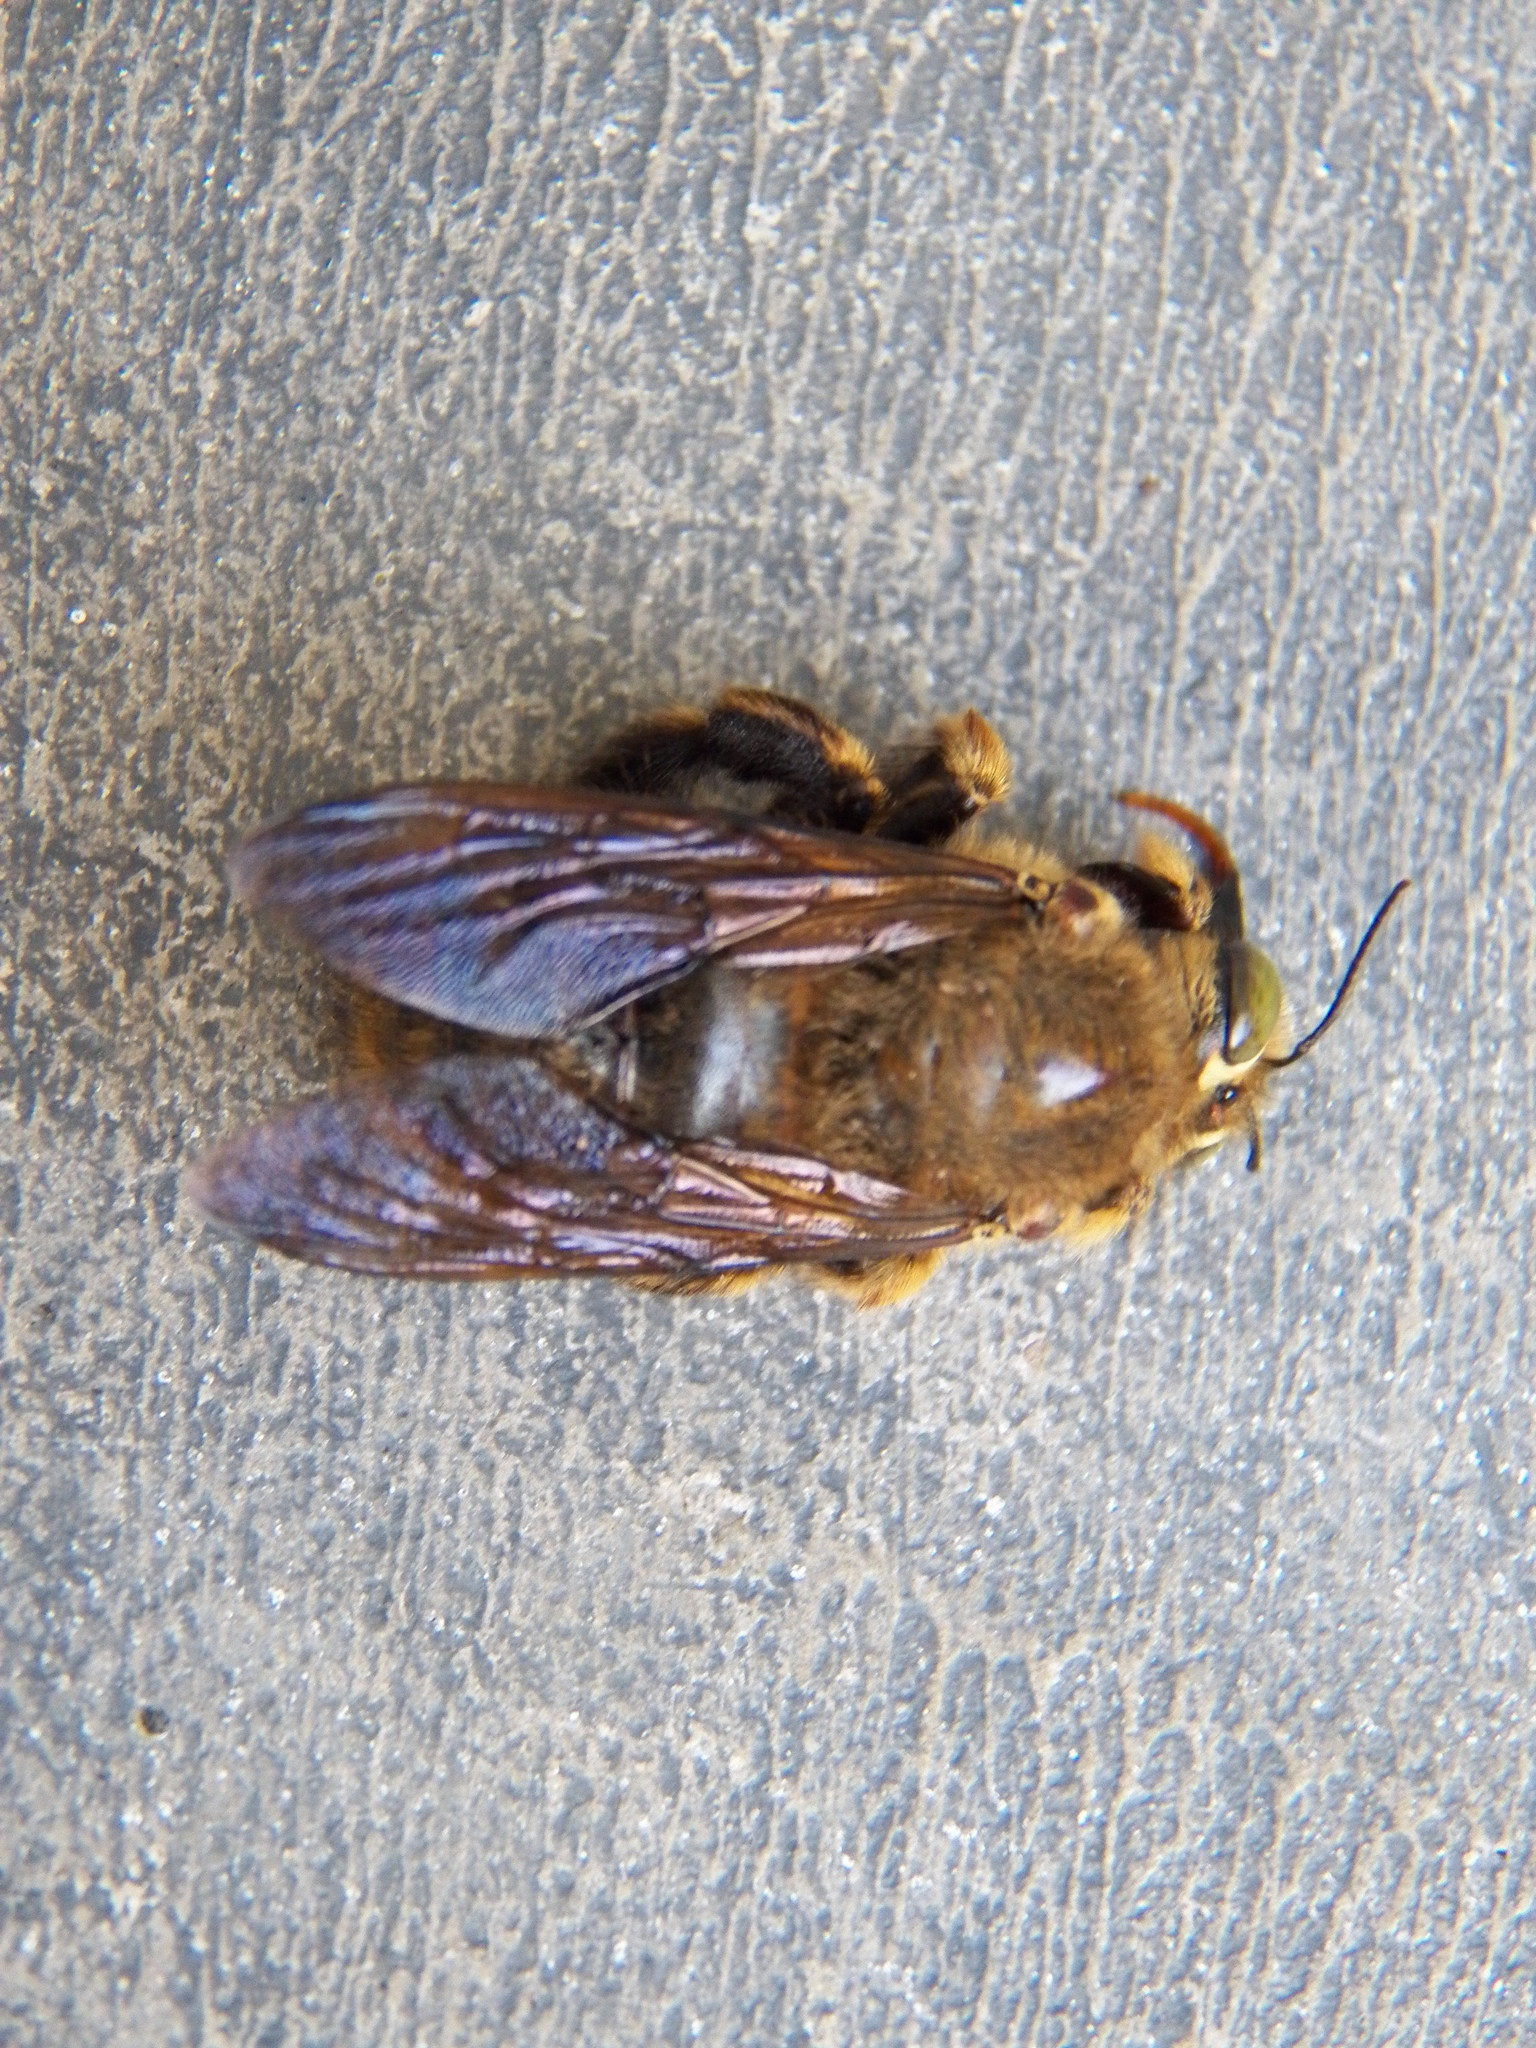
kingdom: Animalia
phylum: Arthropoda
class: Insecta
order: Hymenoptera
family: Apidae
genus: Xylocopa
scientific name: Xylocopa strandi
